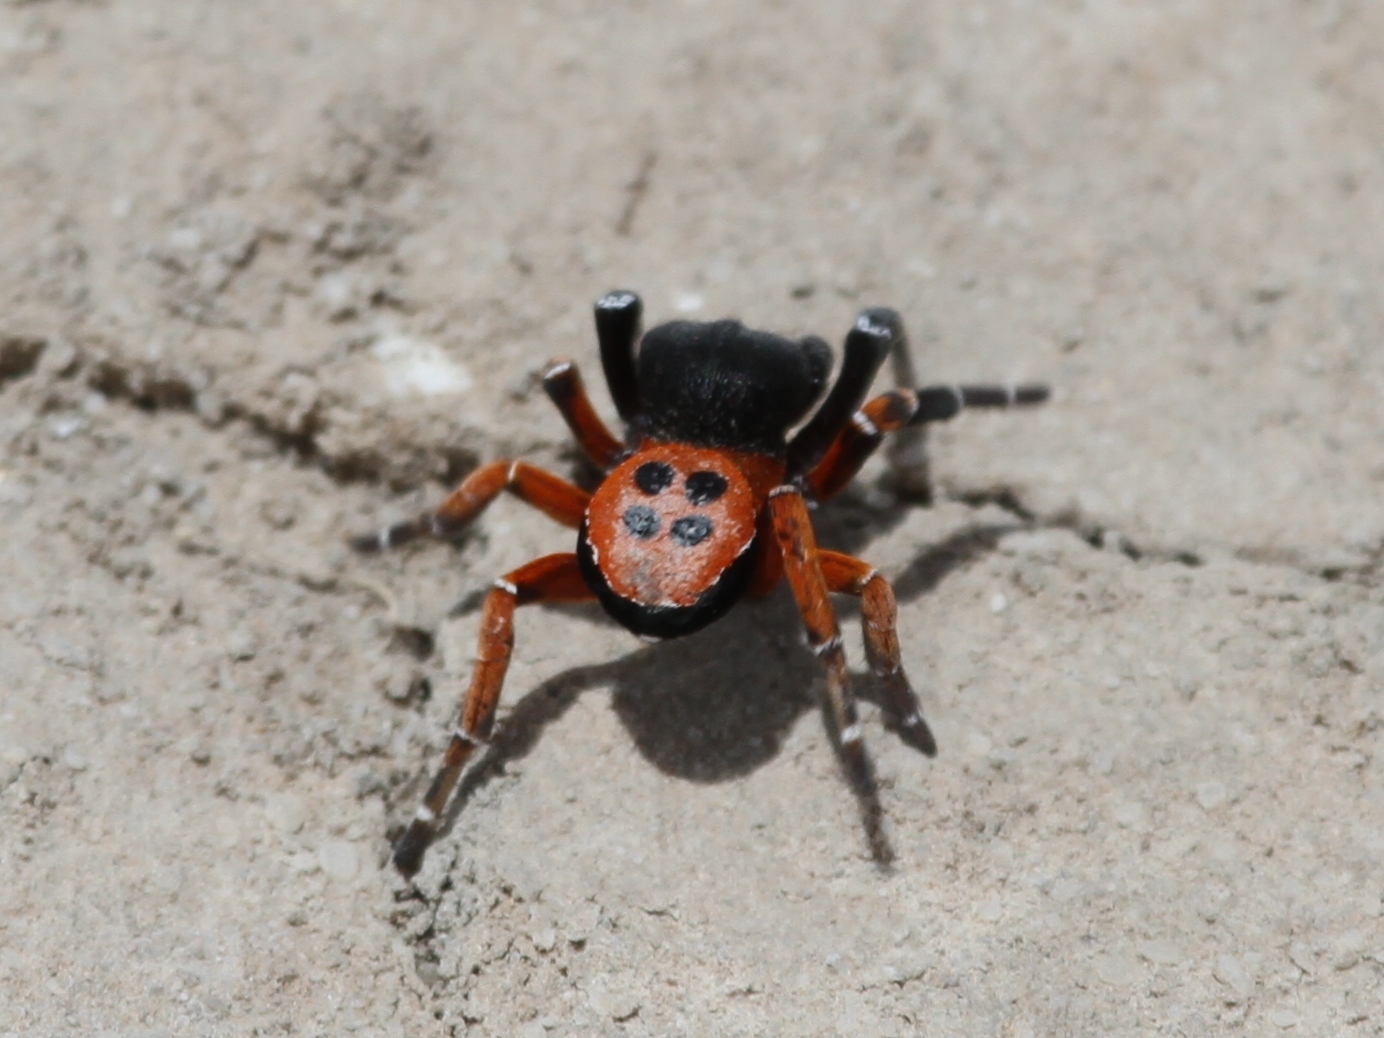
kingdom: Animalia
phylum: Arthropoda
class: Arachnida
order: Araneae
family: Eresidae
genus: Eresus
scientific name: Eresus kollari
